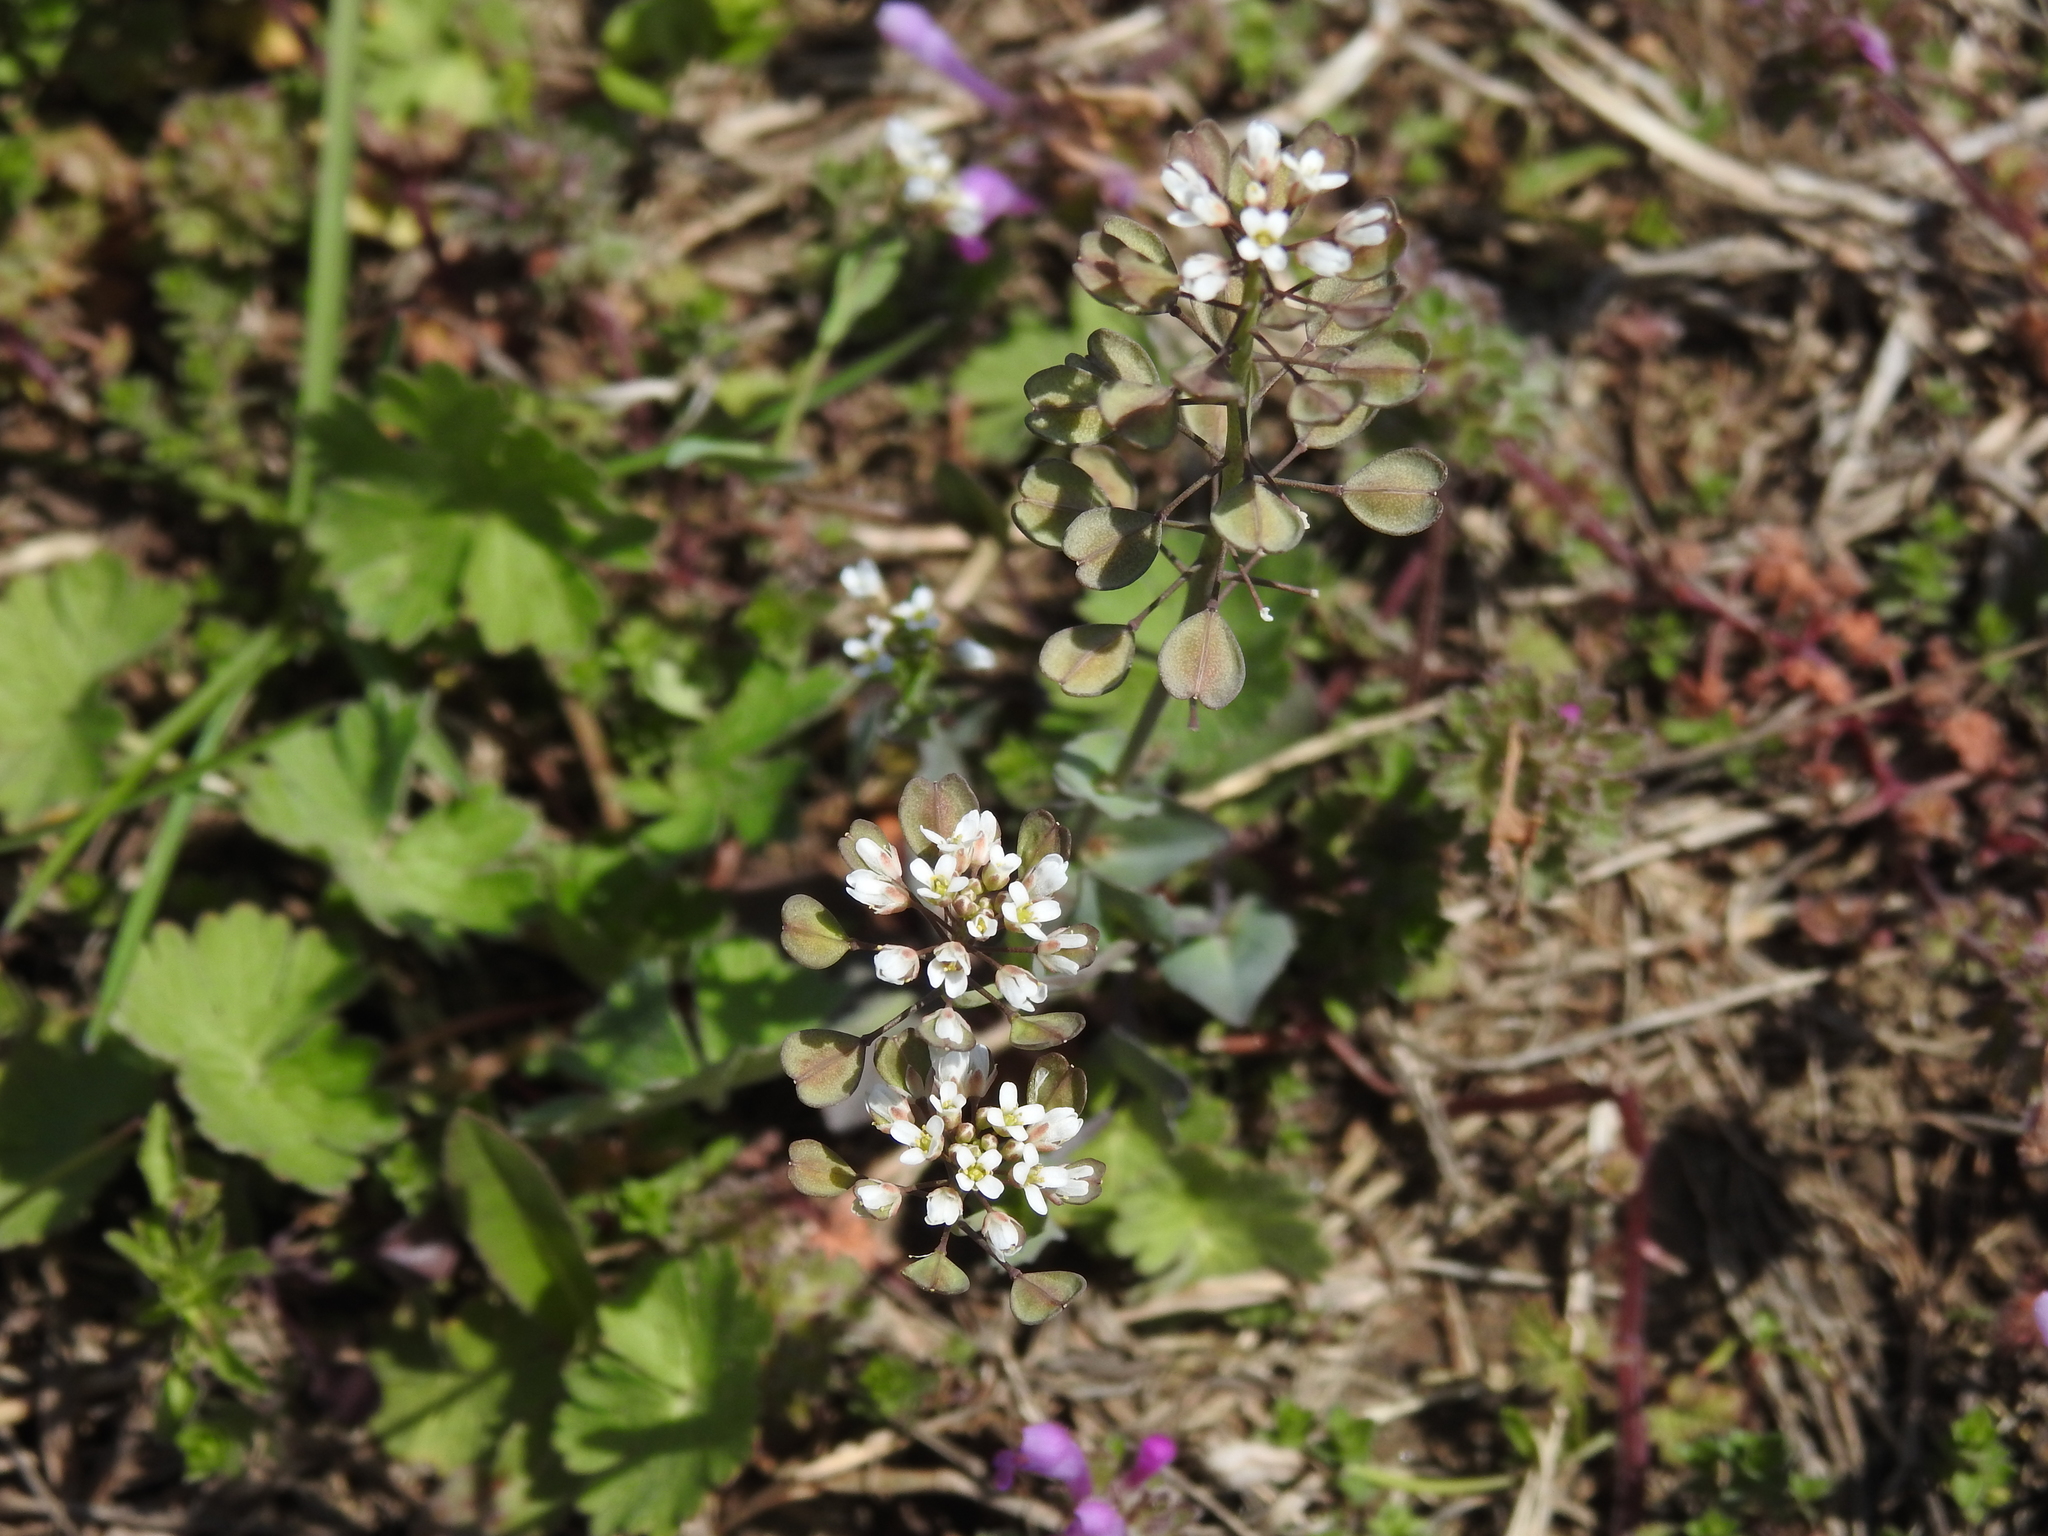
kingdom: Plantae
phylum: Tracheophyta
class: Magnoliopsida
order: Brassicales
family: Brassicaceae
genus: Noccaea
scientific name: Noccaea perfoliata
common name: Perfoliate pennycress
